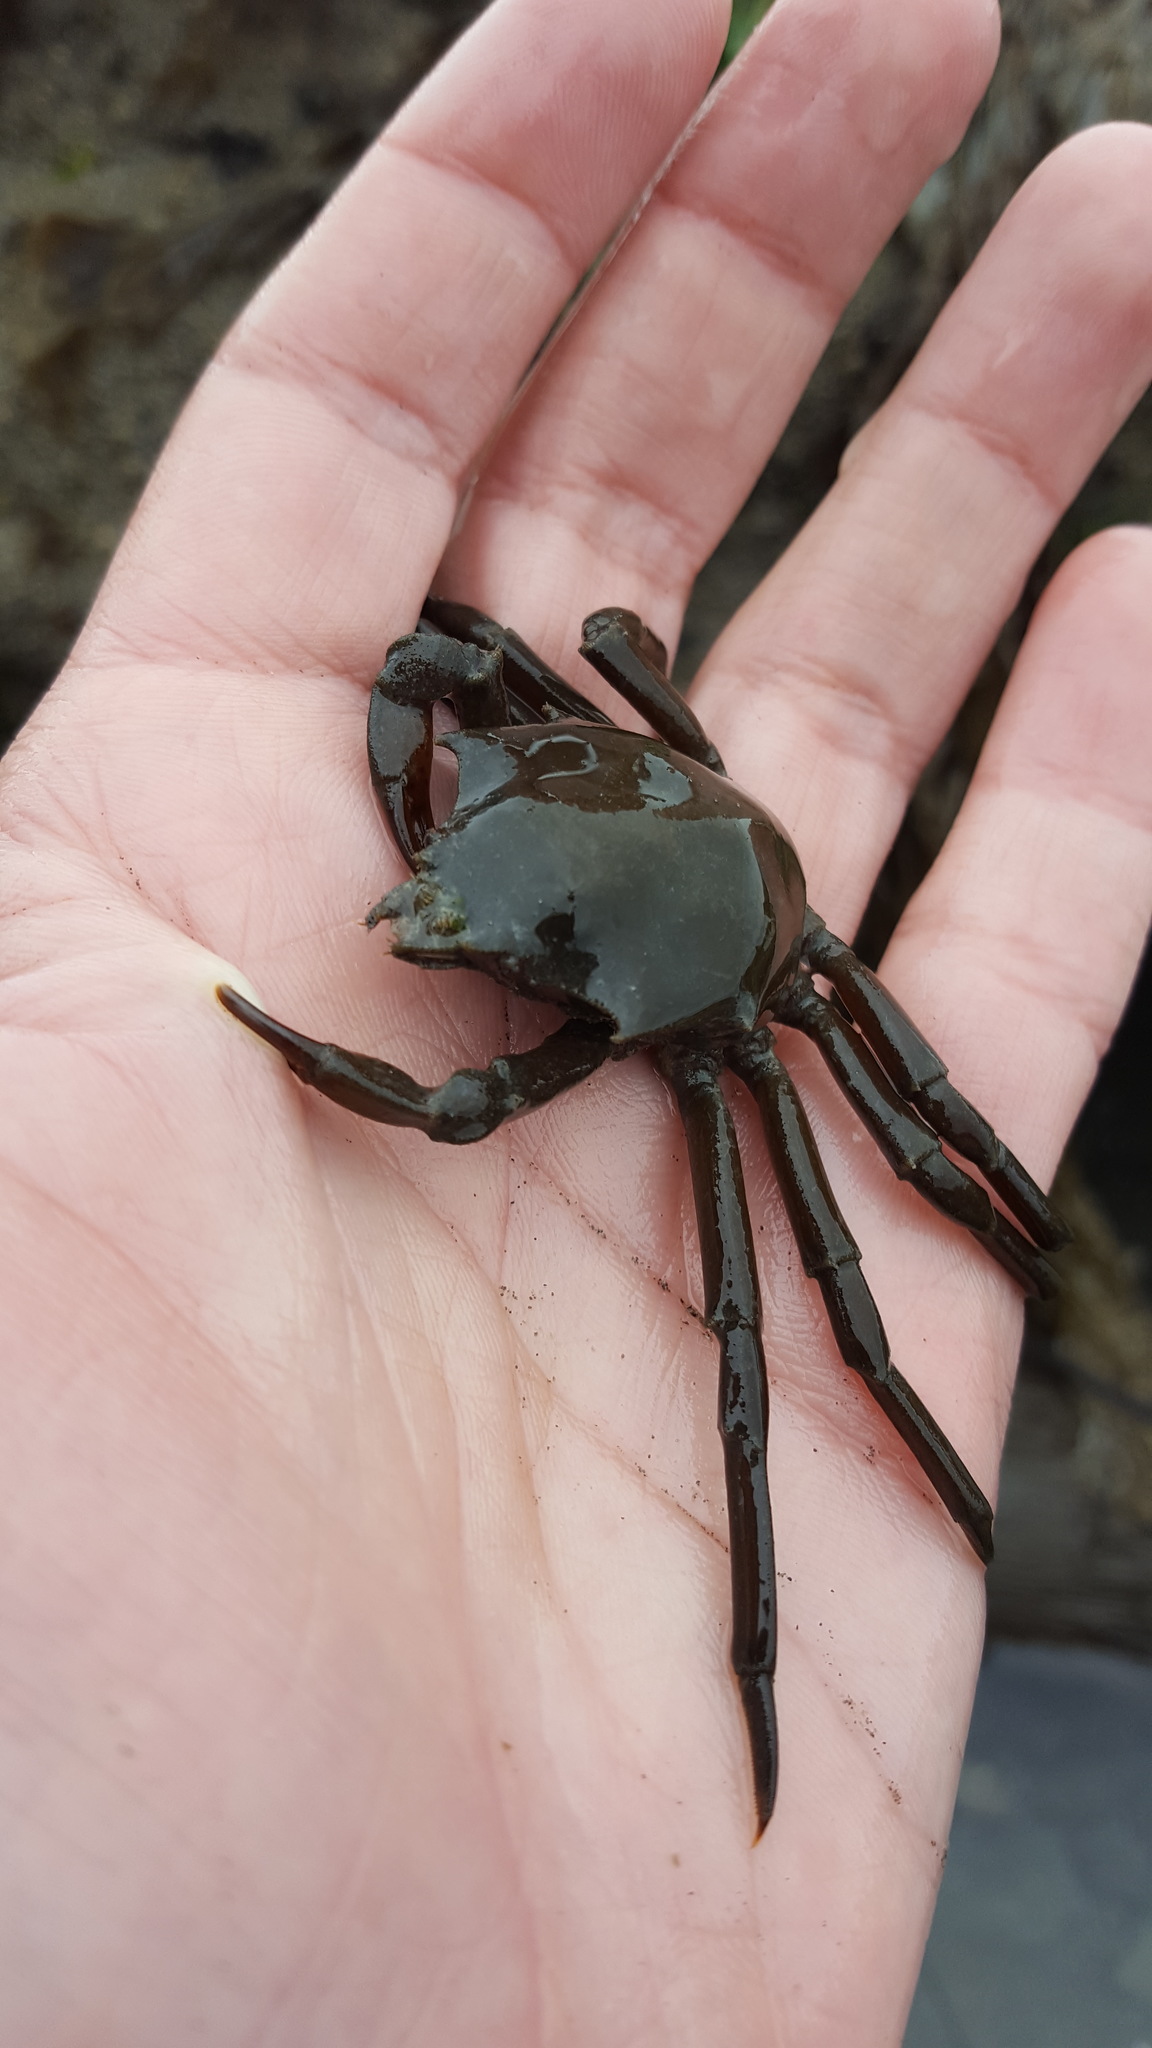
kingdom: Animalia
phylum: Arthropoda
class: Malacostraca
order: Decapoda
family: Epialtidae
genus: Pugettia
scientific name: Pugettia producta
